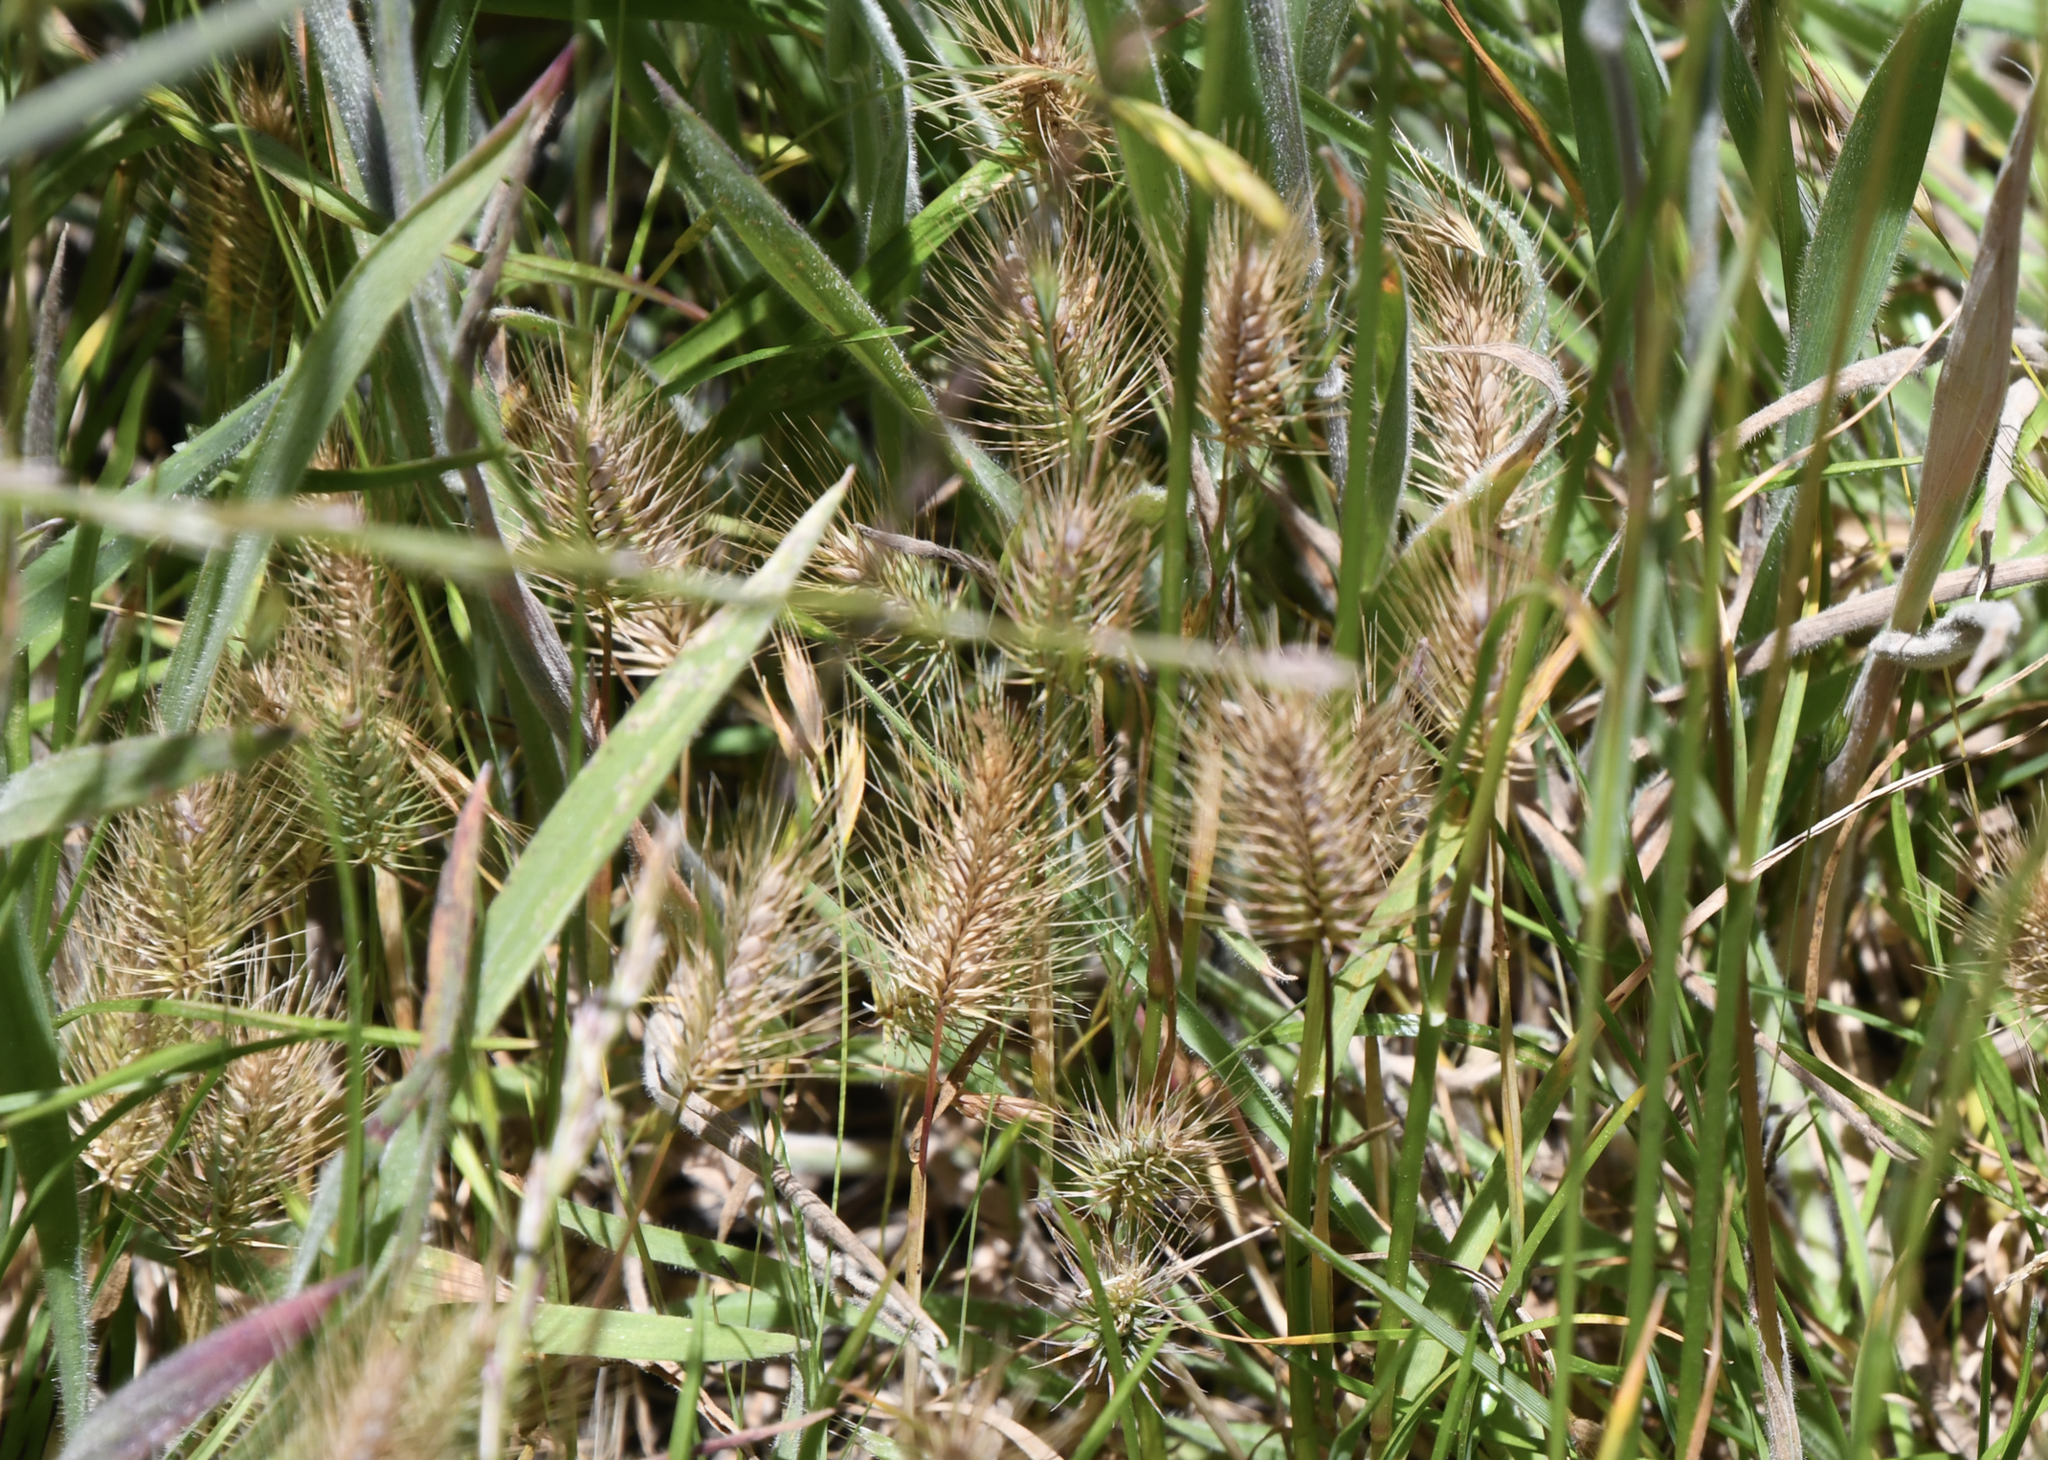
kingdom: Plantae
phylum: Tracheophyta
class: Liliopsida
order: Poales
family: Poaceae
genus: Hordeum
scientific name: Hordeum marinum
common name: Sea barley
